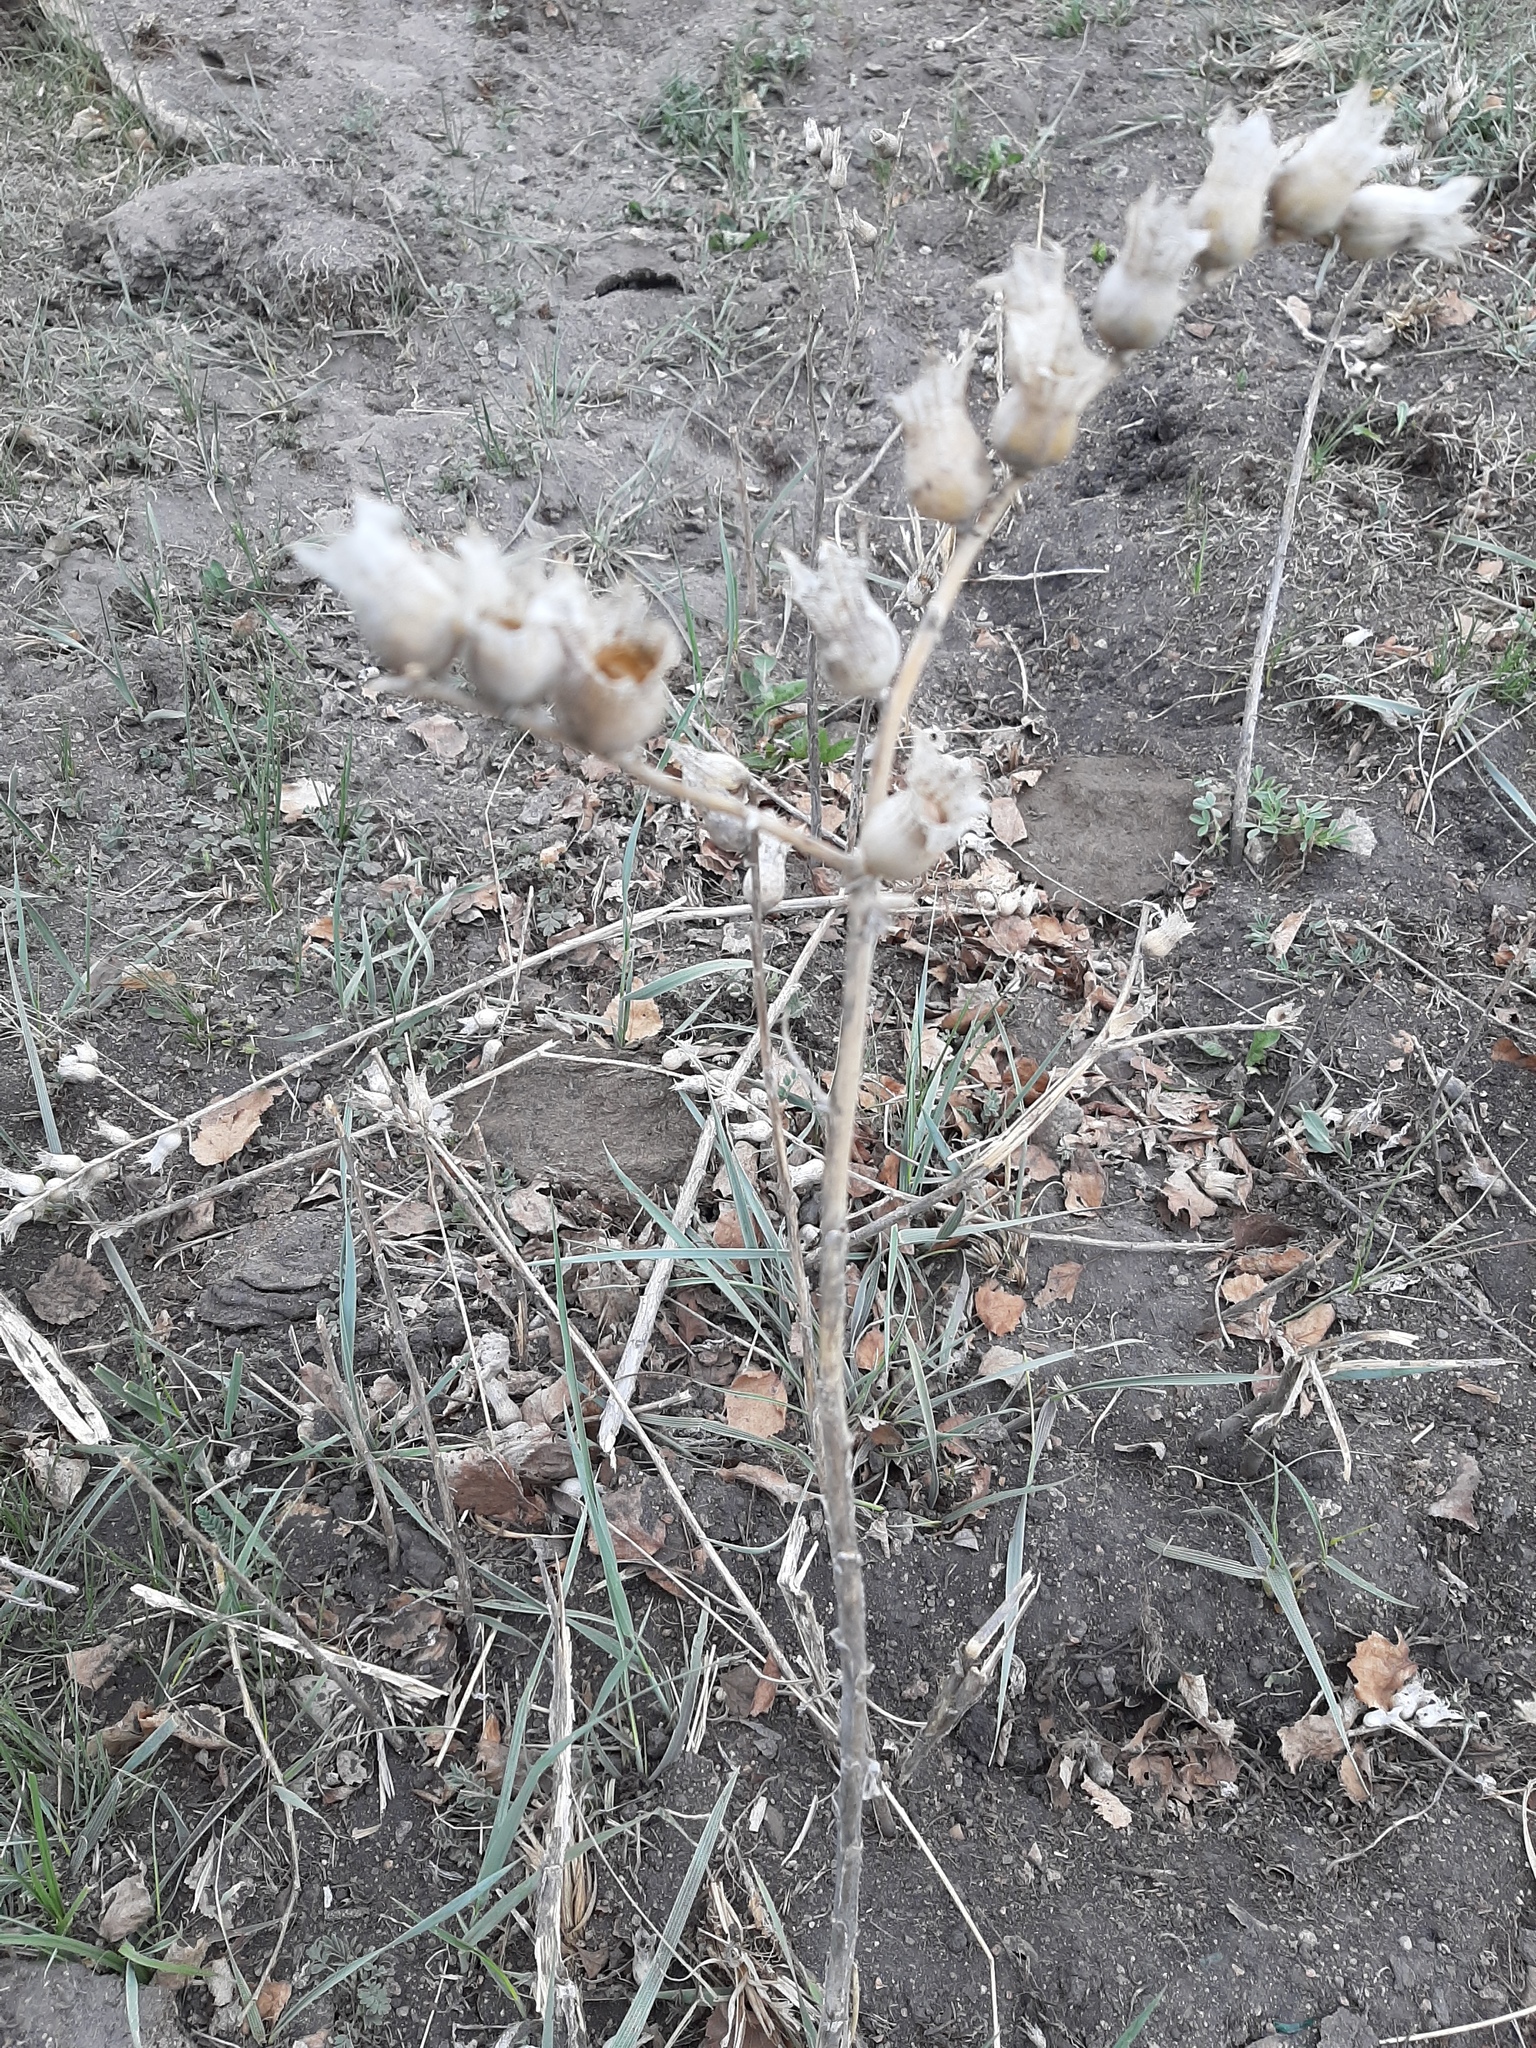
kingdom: Plantae
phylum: Tracheophyta
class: Magnoliopsida
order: Solanales
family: Solanaceae
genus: Hyoscyamus
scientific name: Hyoscyamus niger
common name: Henbane
